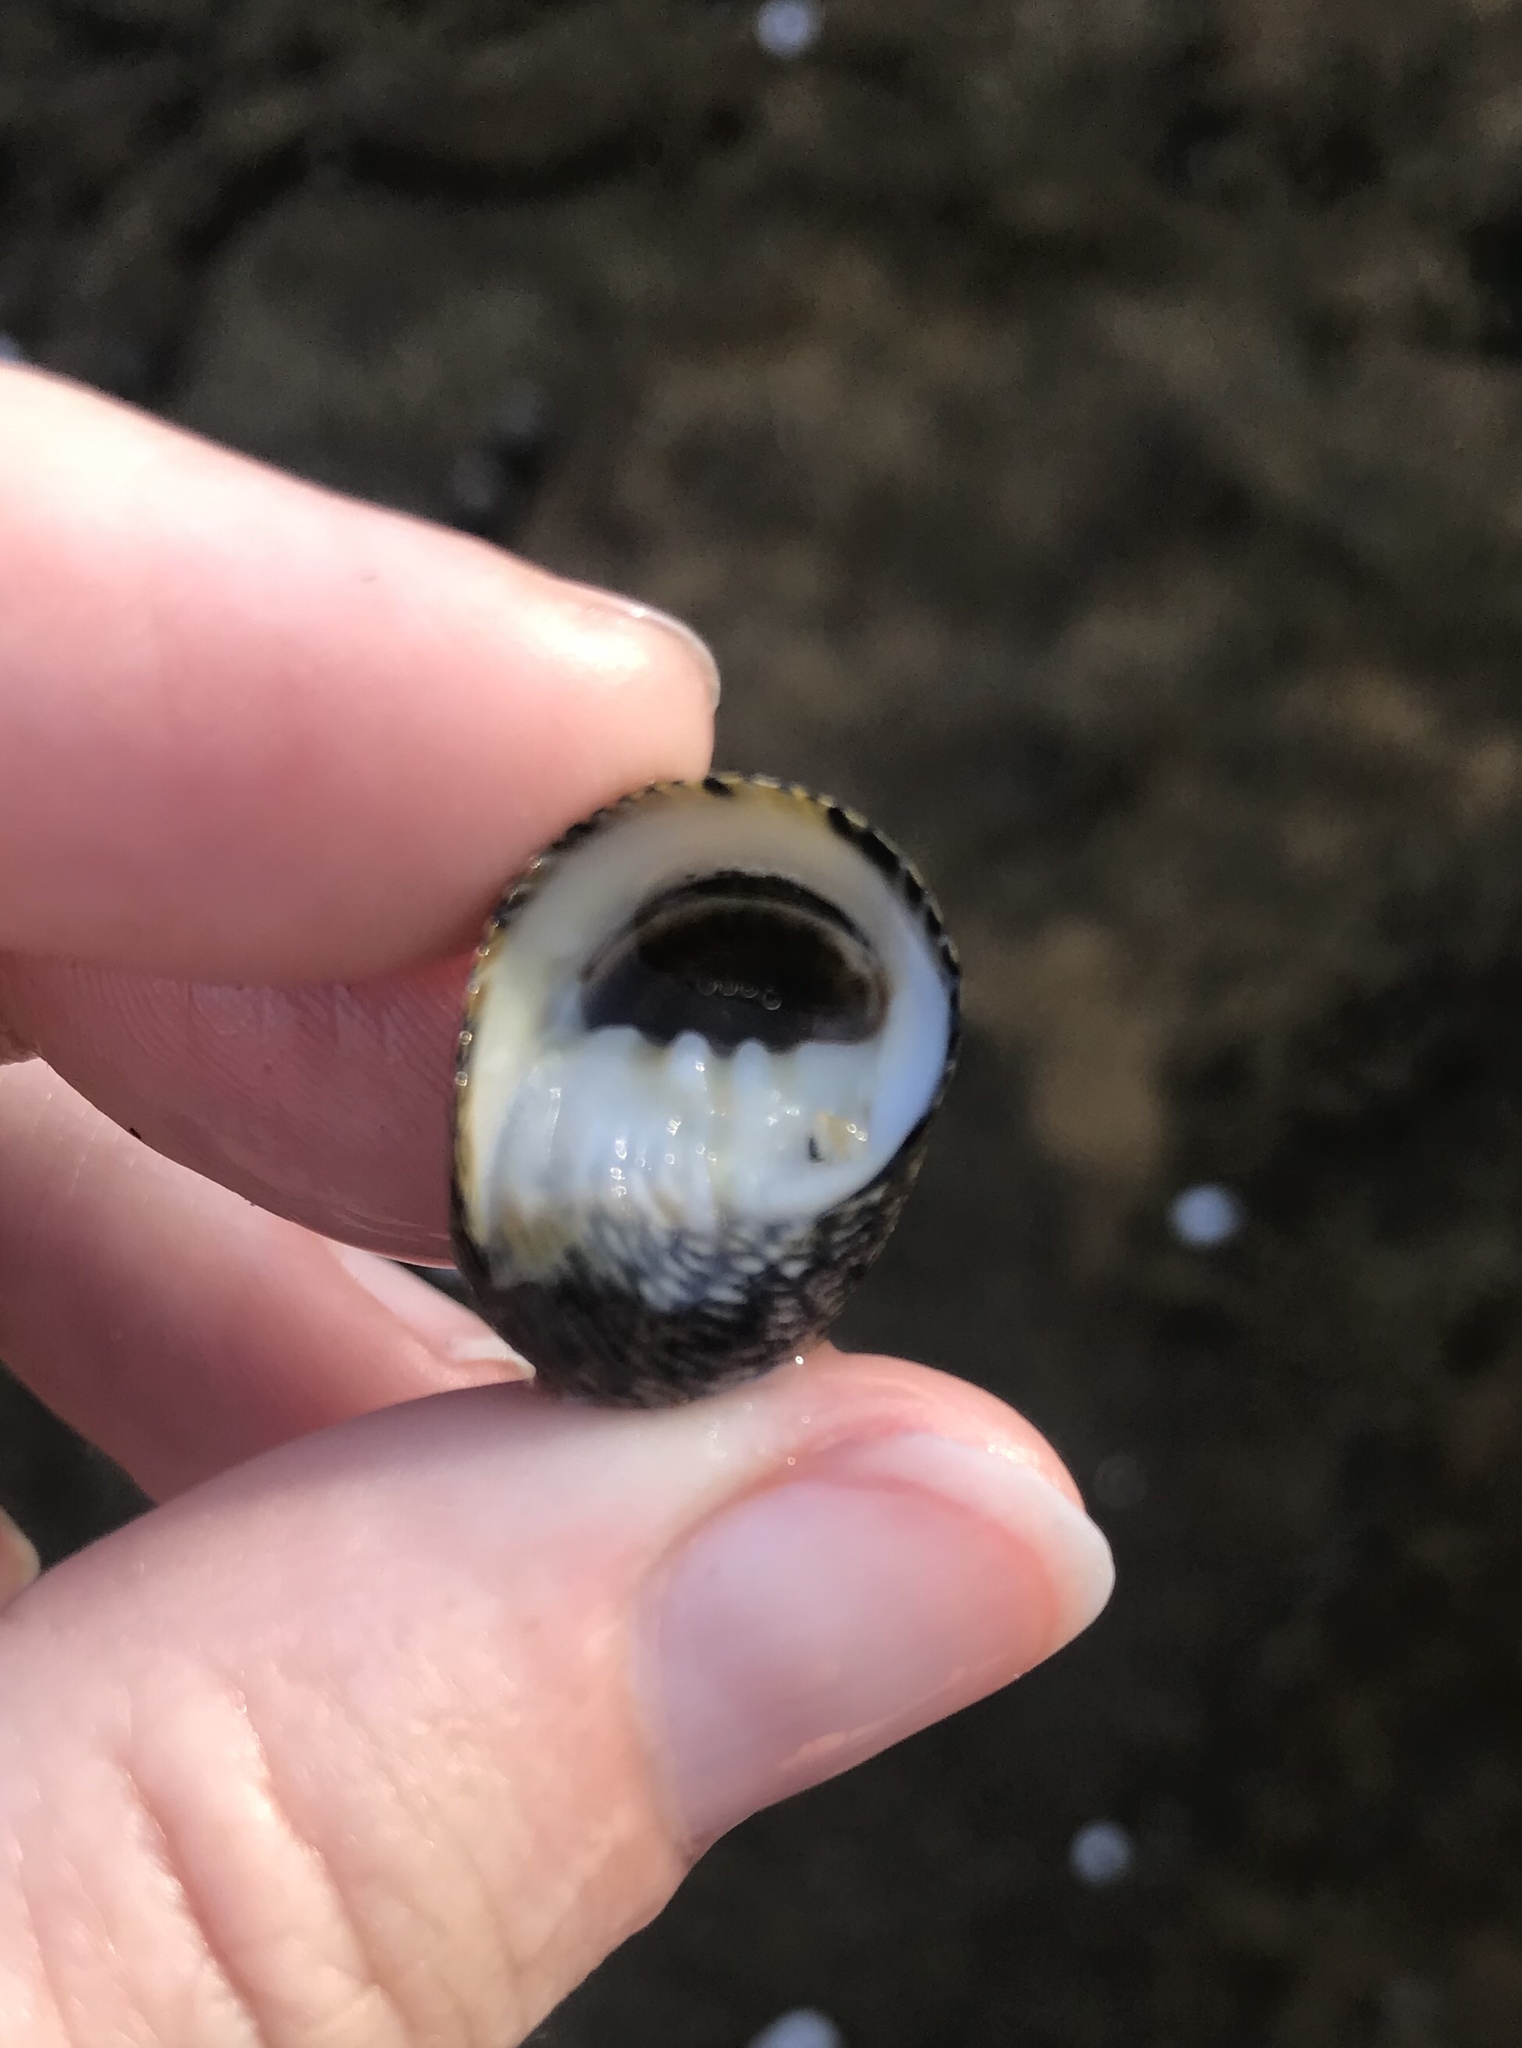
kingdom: Animalia
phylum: Mollusca
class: Gastropoda
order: Cycloneritida
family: Neritidae
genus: Nerita
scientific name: Nerita scabricosta
